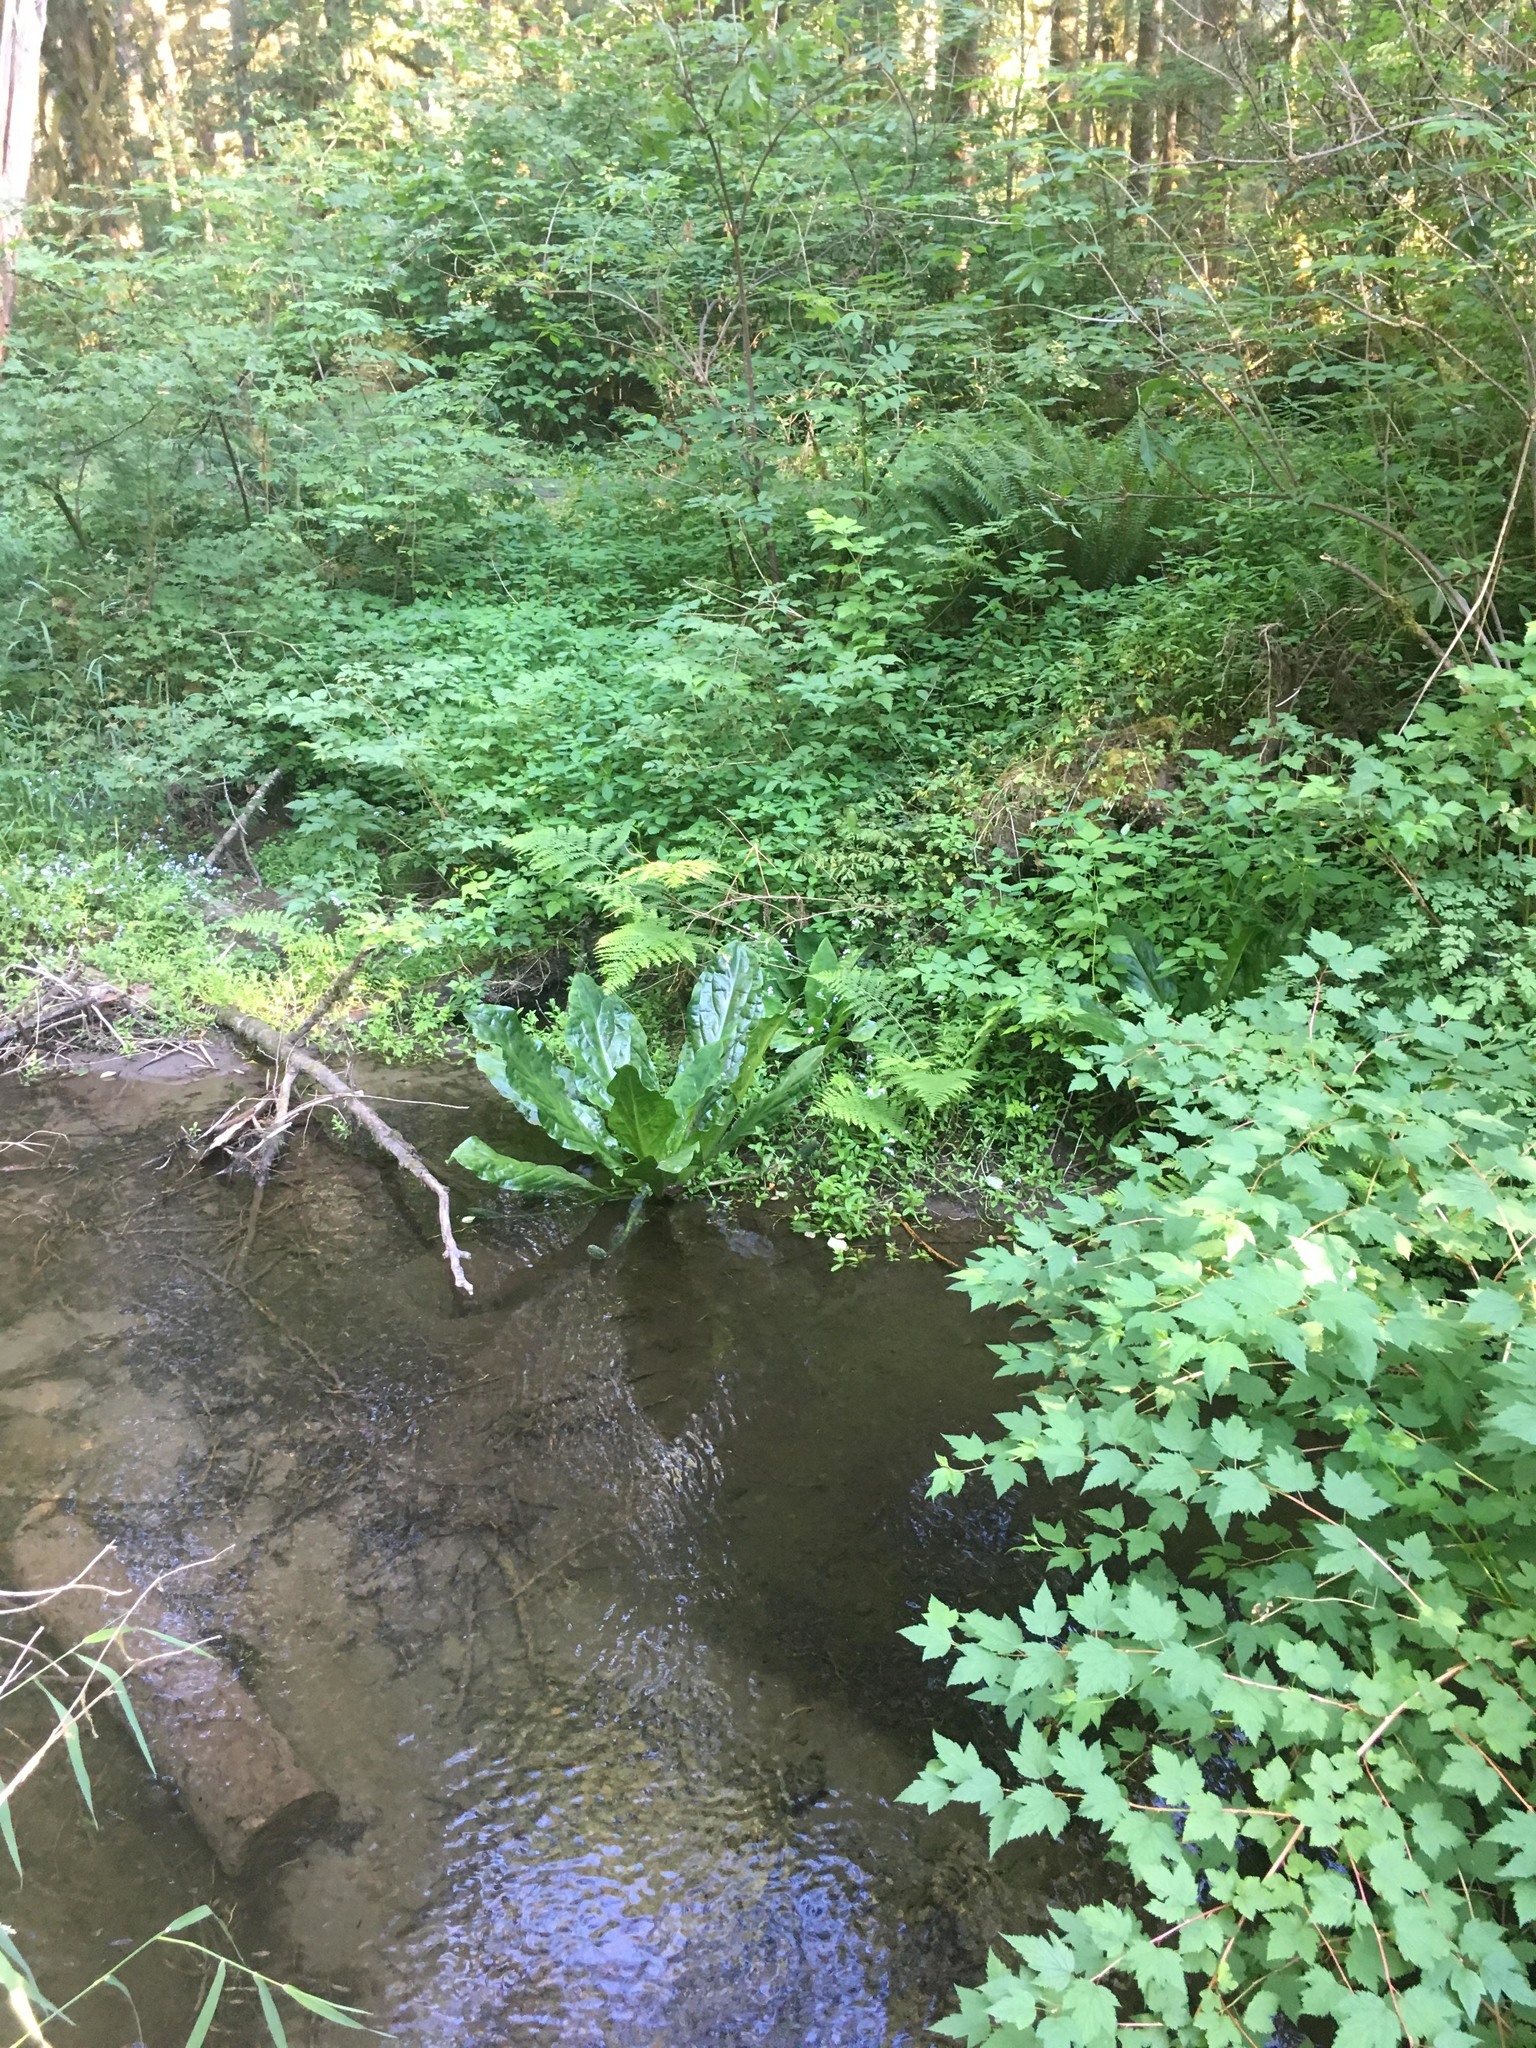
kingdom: Plantae
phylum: Tracheophyta
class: Liliopsida
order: Alismatales
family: Araceae
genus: Lysichiton
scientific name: Lysichiton americanus
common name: American skunk cabbage
